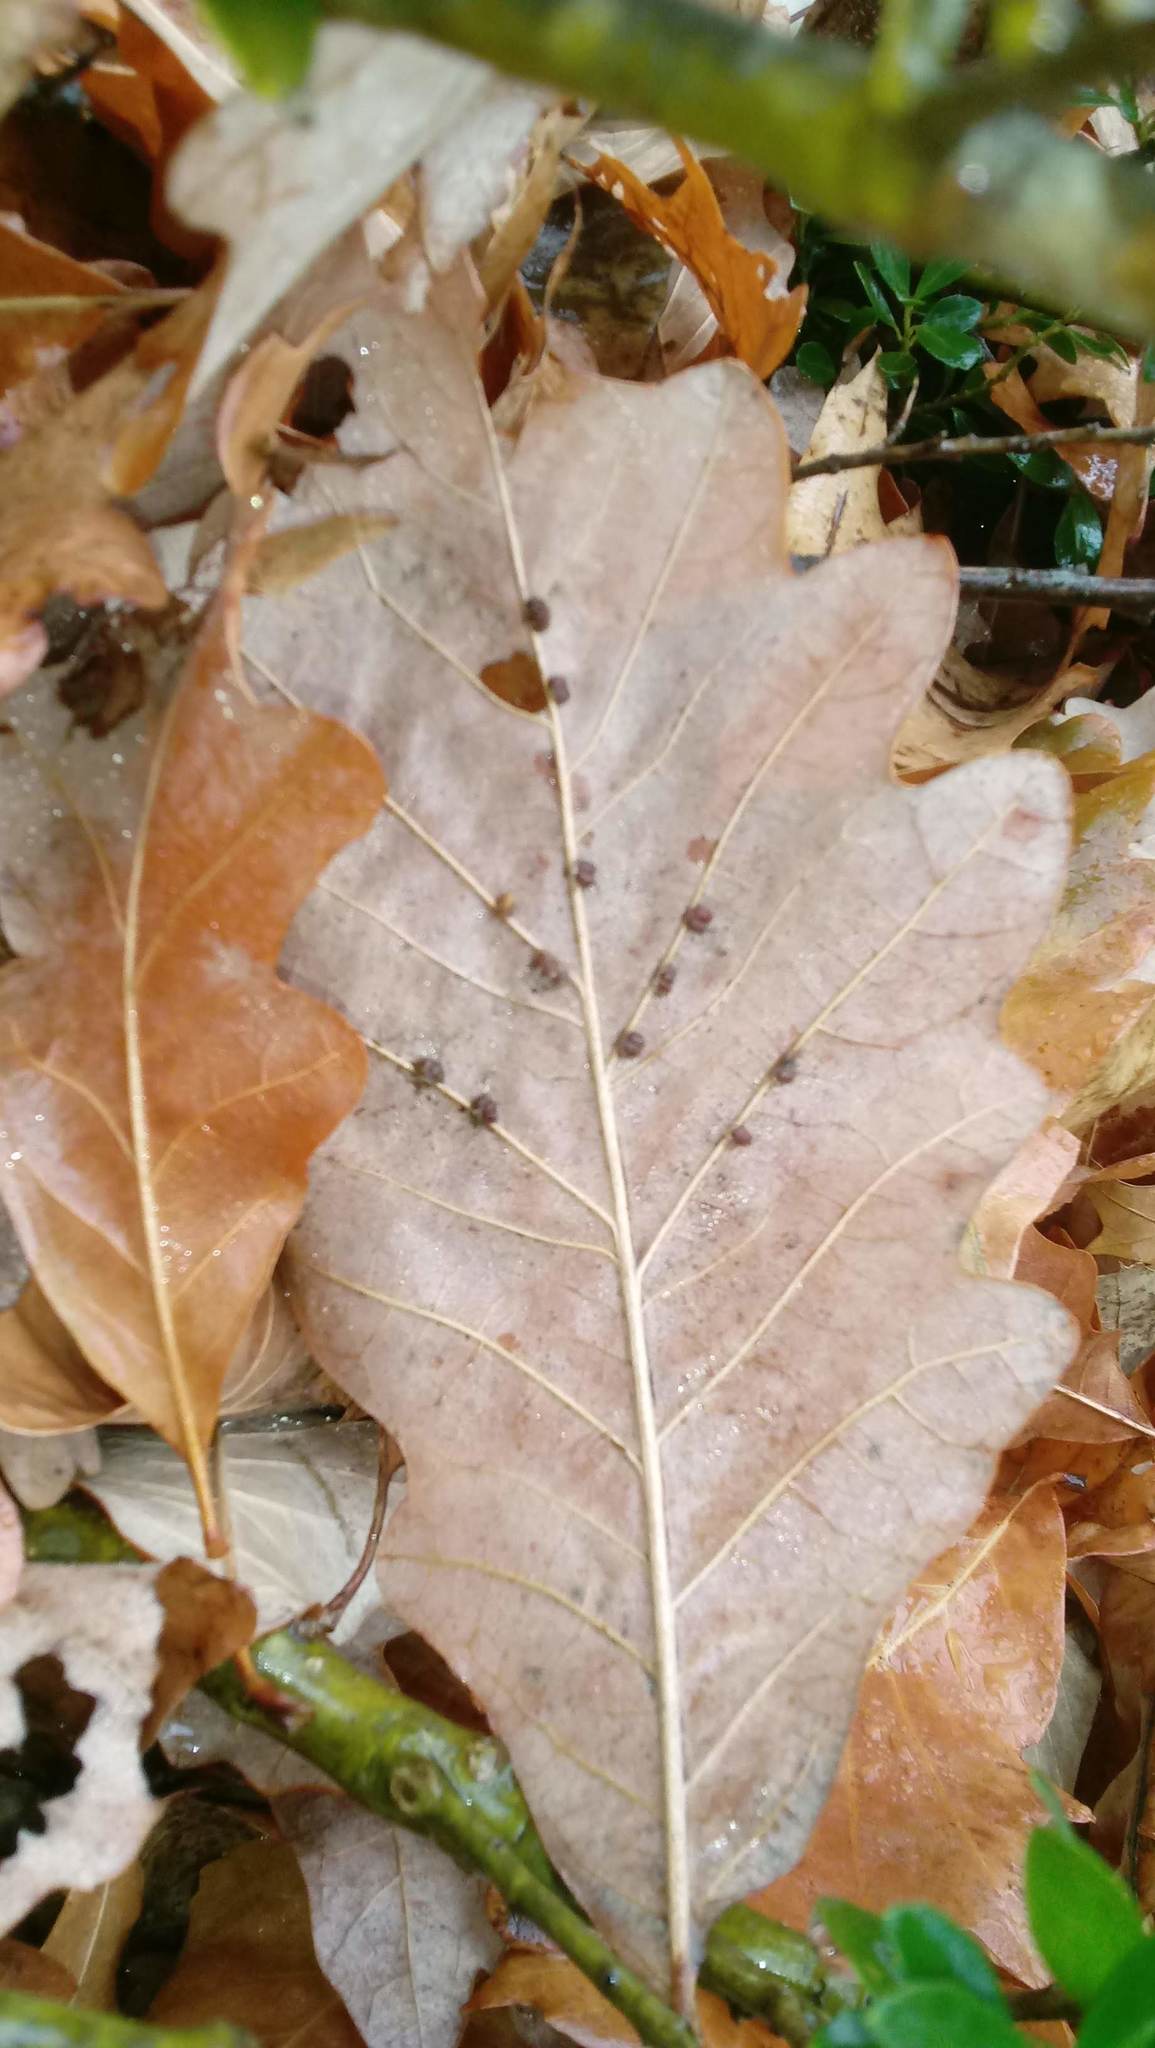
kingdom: Animalia
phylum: Arthropoda
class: Insecta
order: Hymenoptera
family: Cynipidae
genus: Andricus
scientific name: Andricus Druon ignotum
